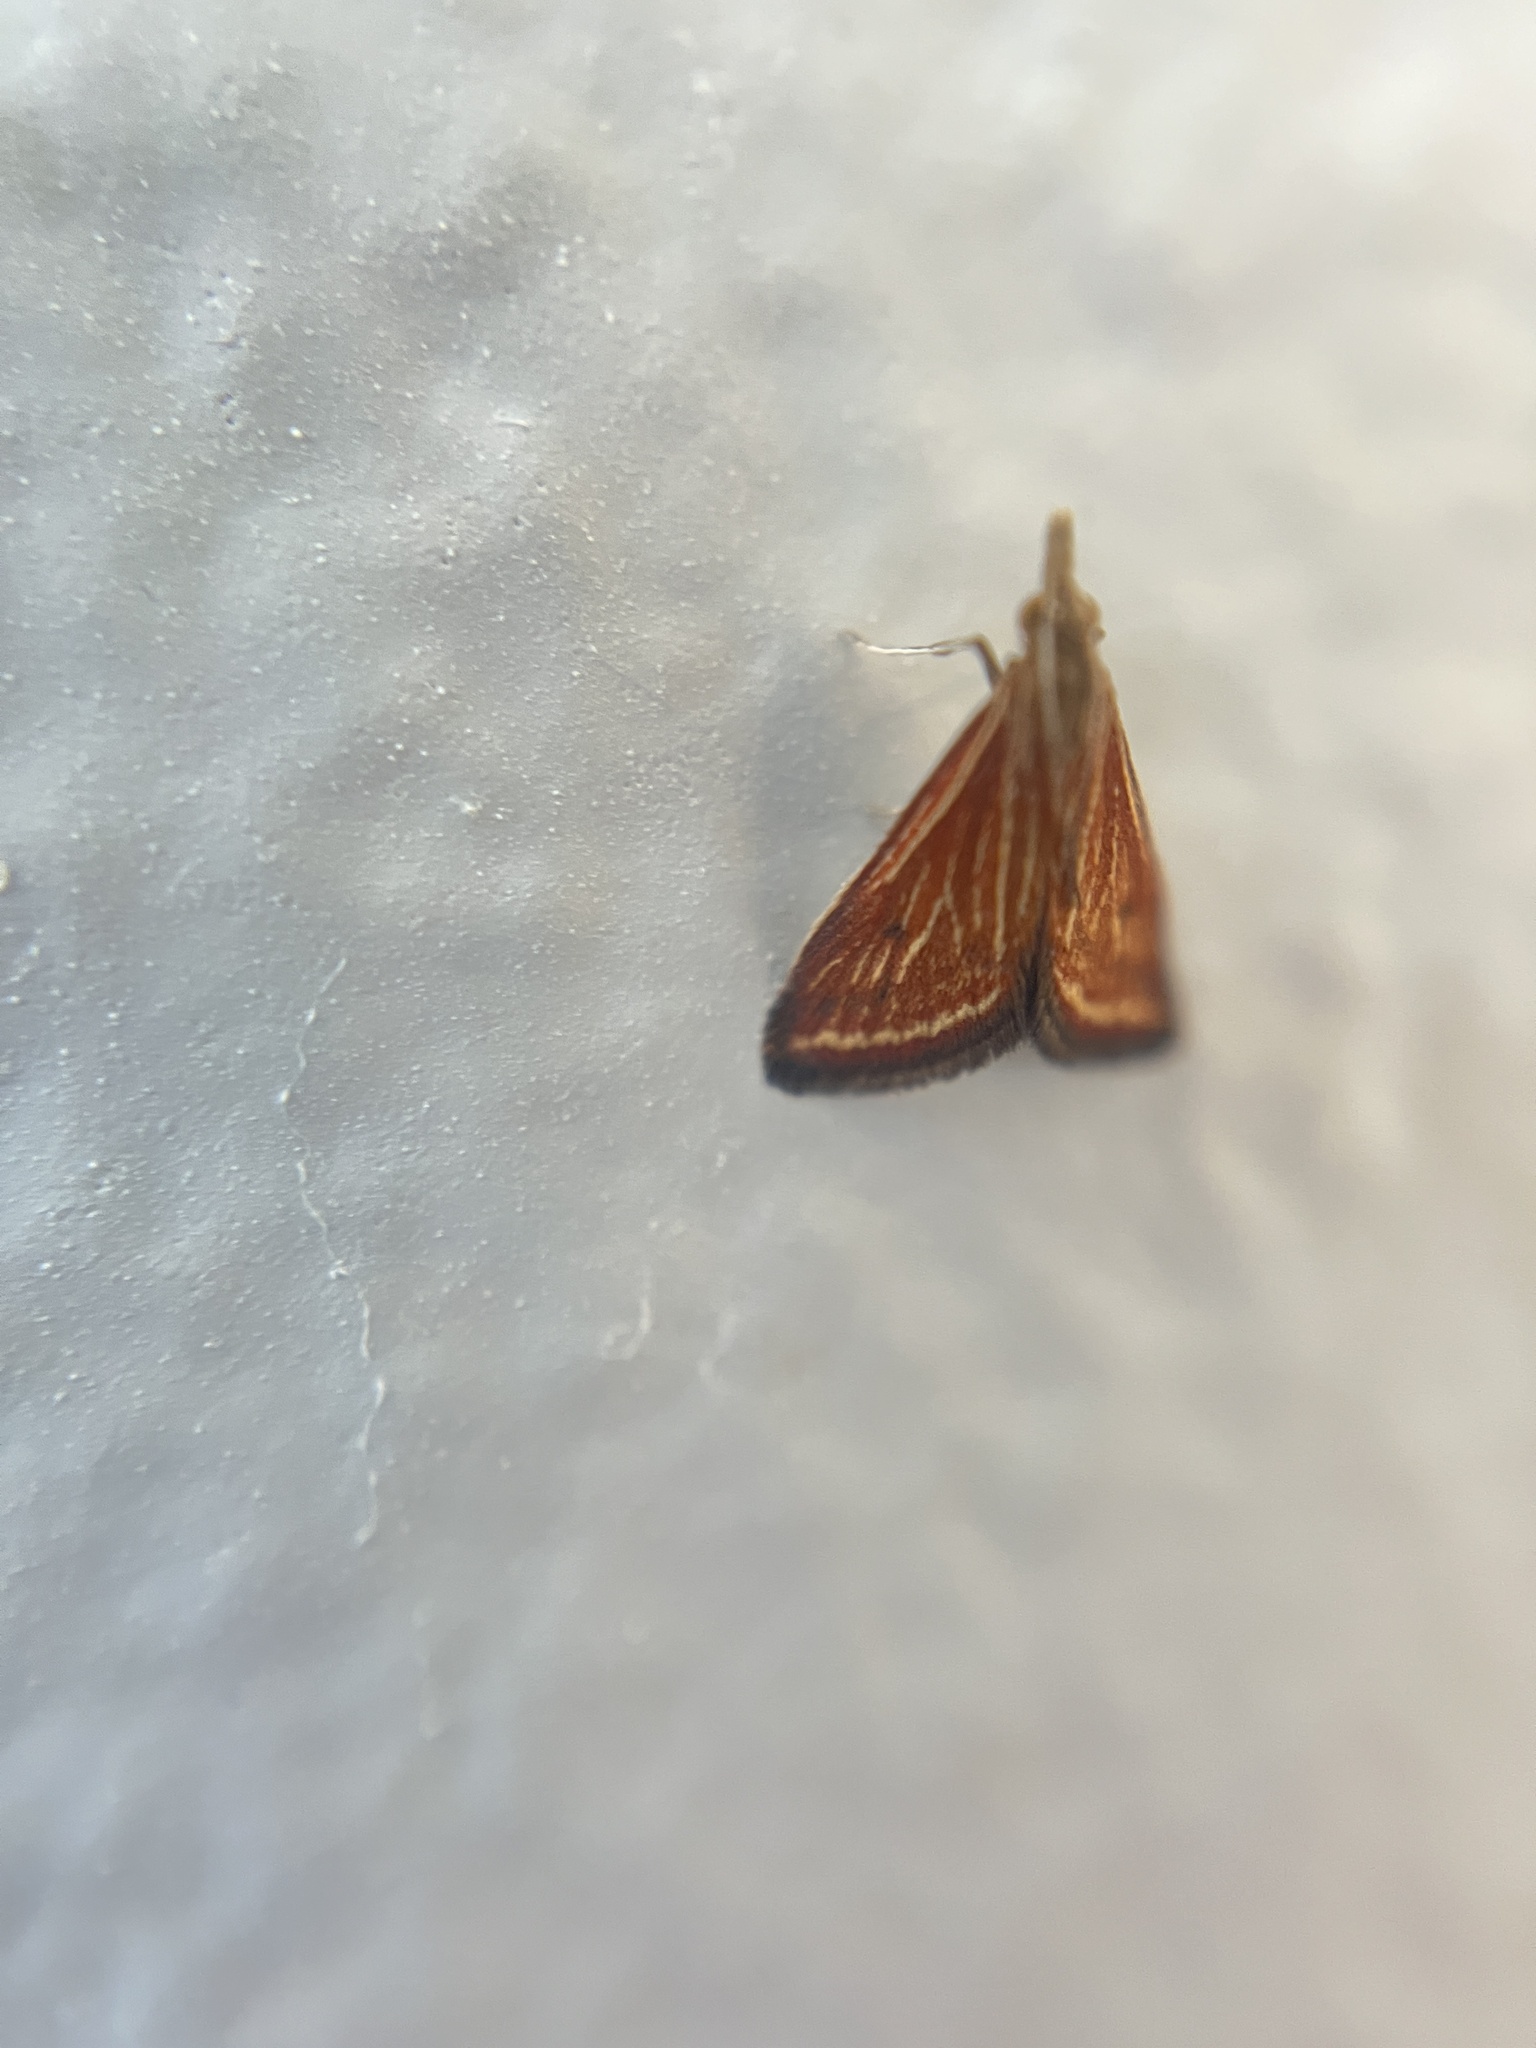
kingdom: Animalia
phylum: Arthropoda
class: Insecta
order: Lepidoptera
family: Crambidae
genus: Microtheoris
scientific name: Microtheoris ophionalis
